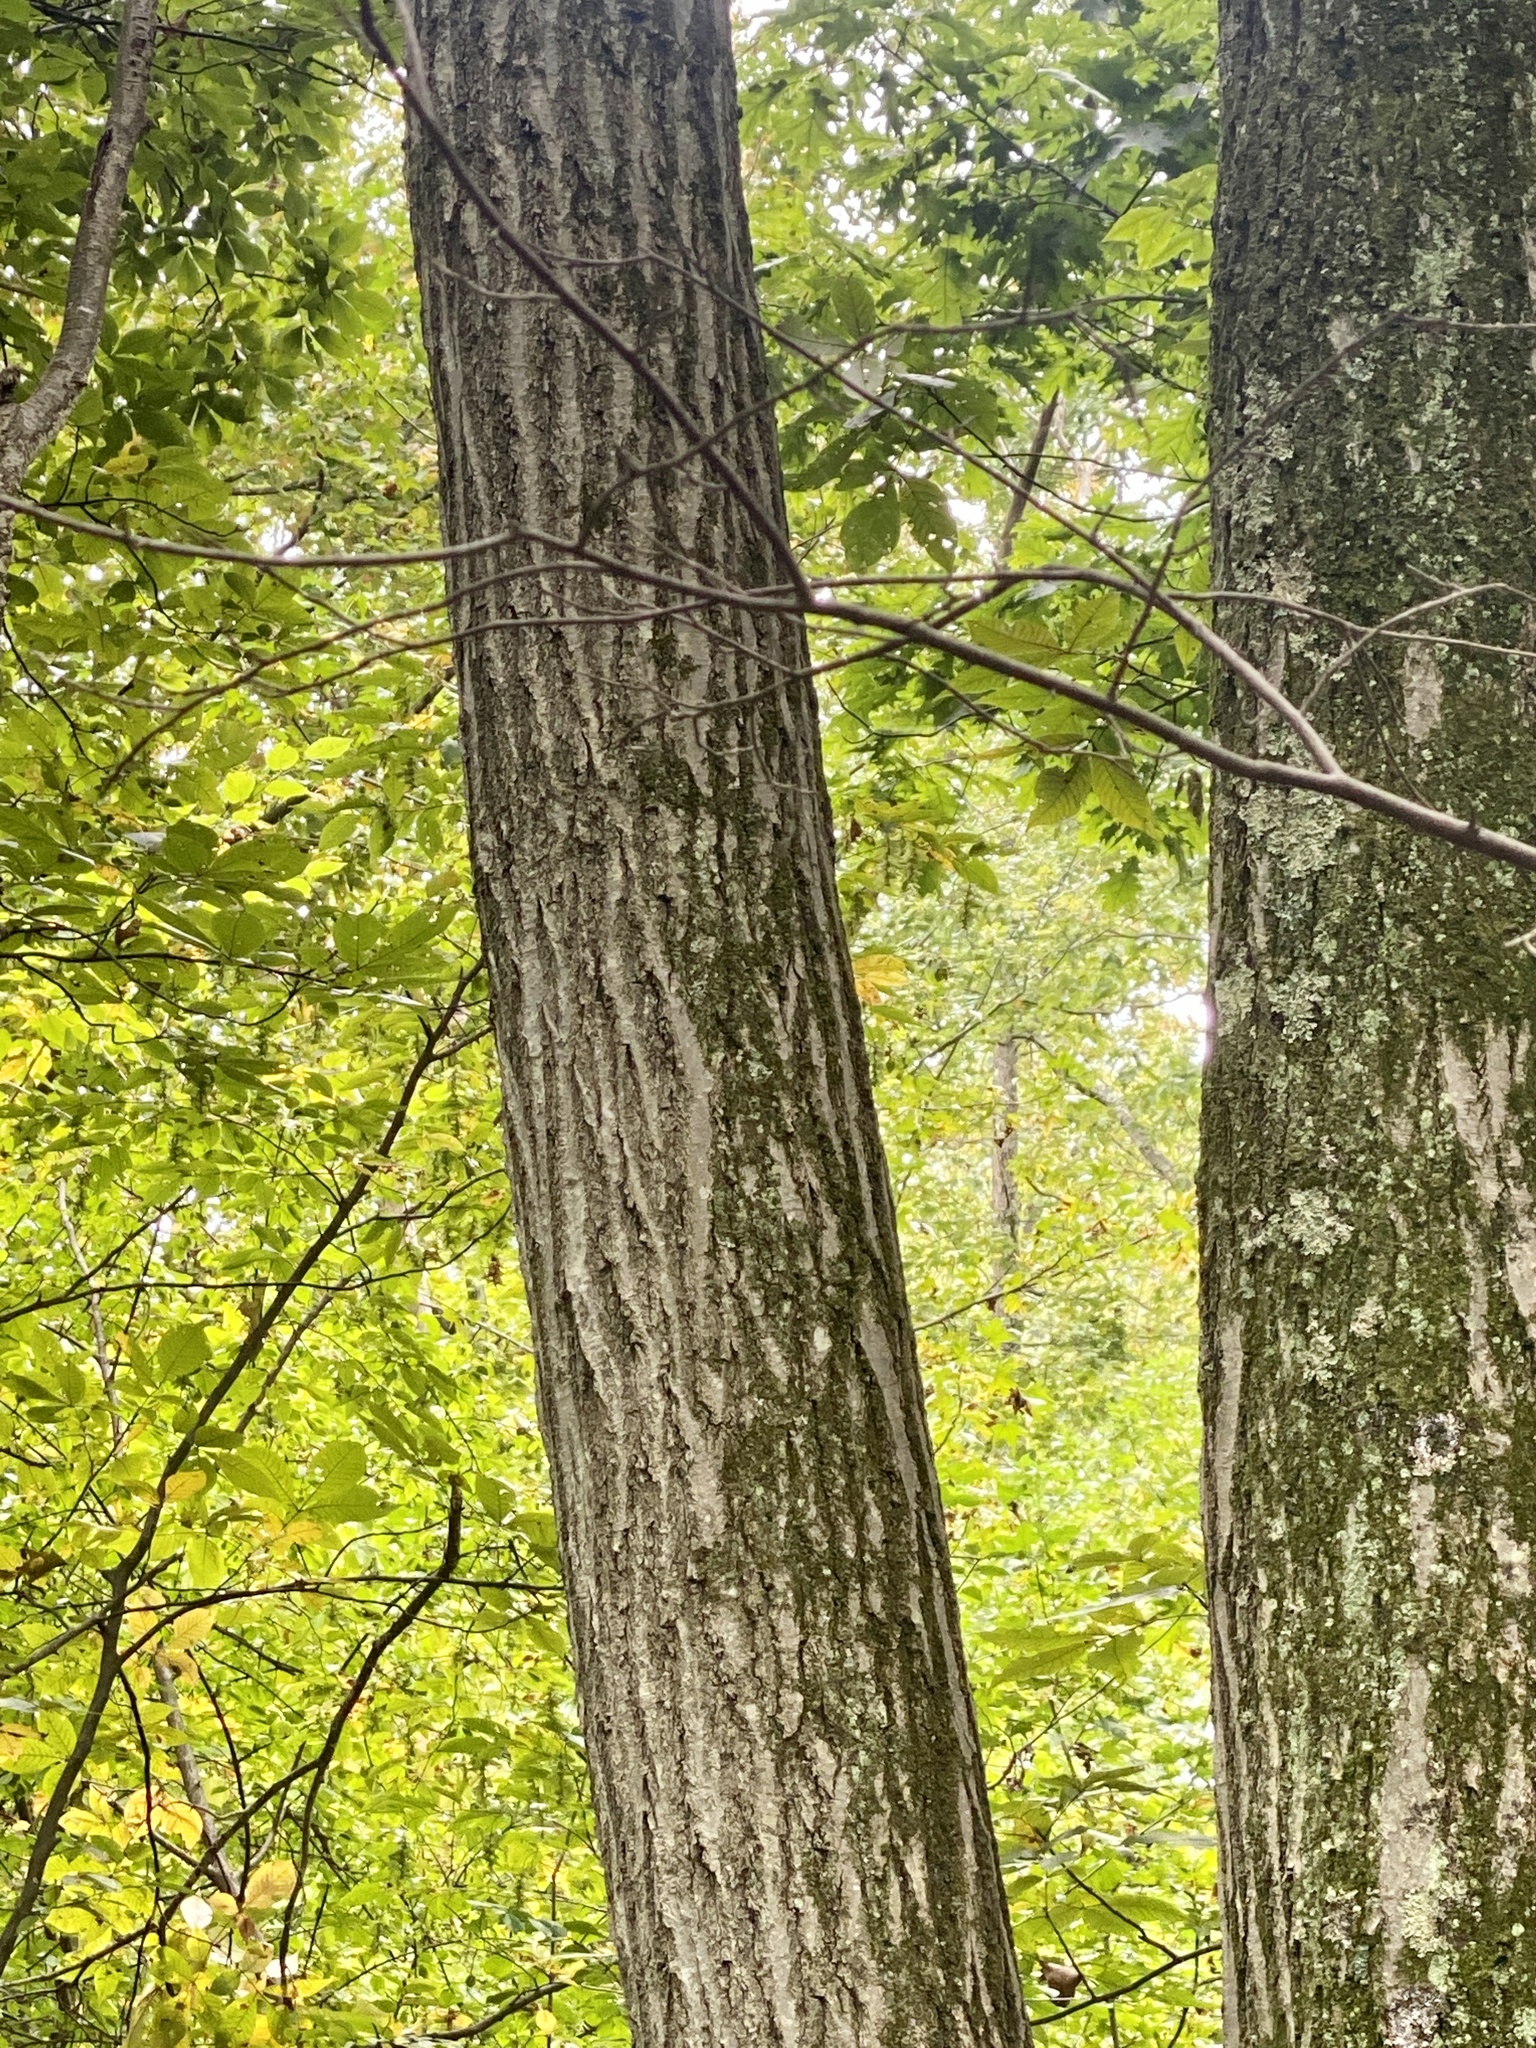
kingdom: Plantae
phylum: Tracheophyta
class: Magnoliopsida
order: Fagales
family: Fagaceae
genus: Quercus
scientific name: Quercus rubra
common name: Red oak
